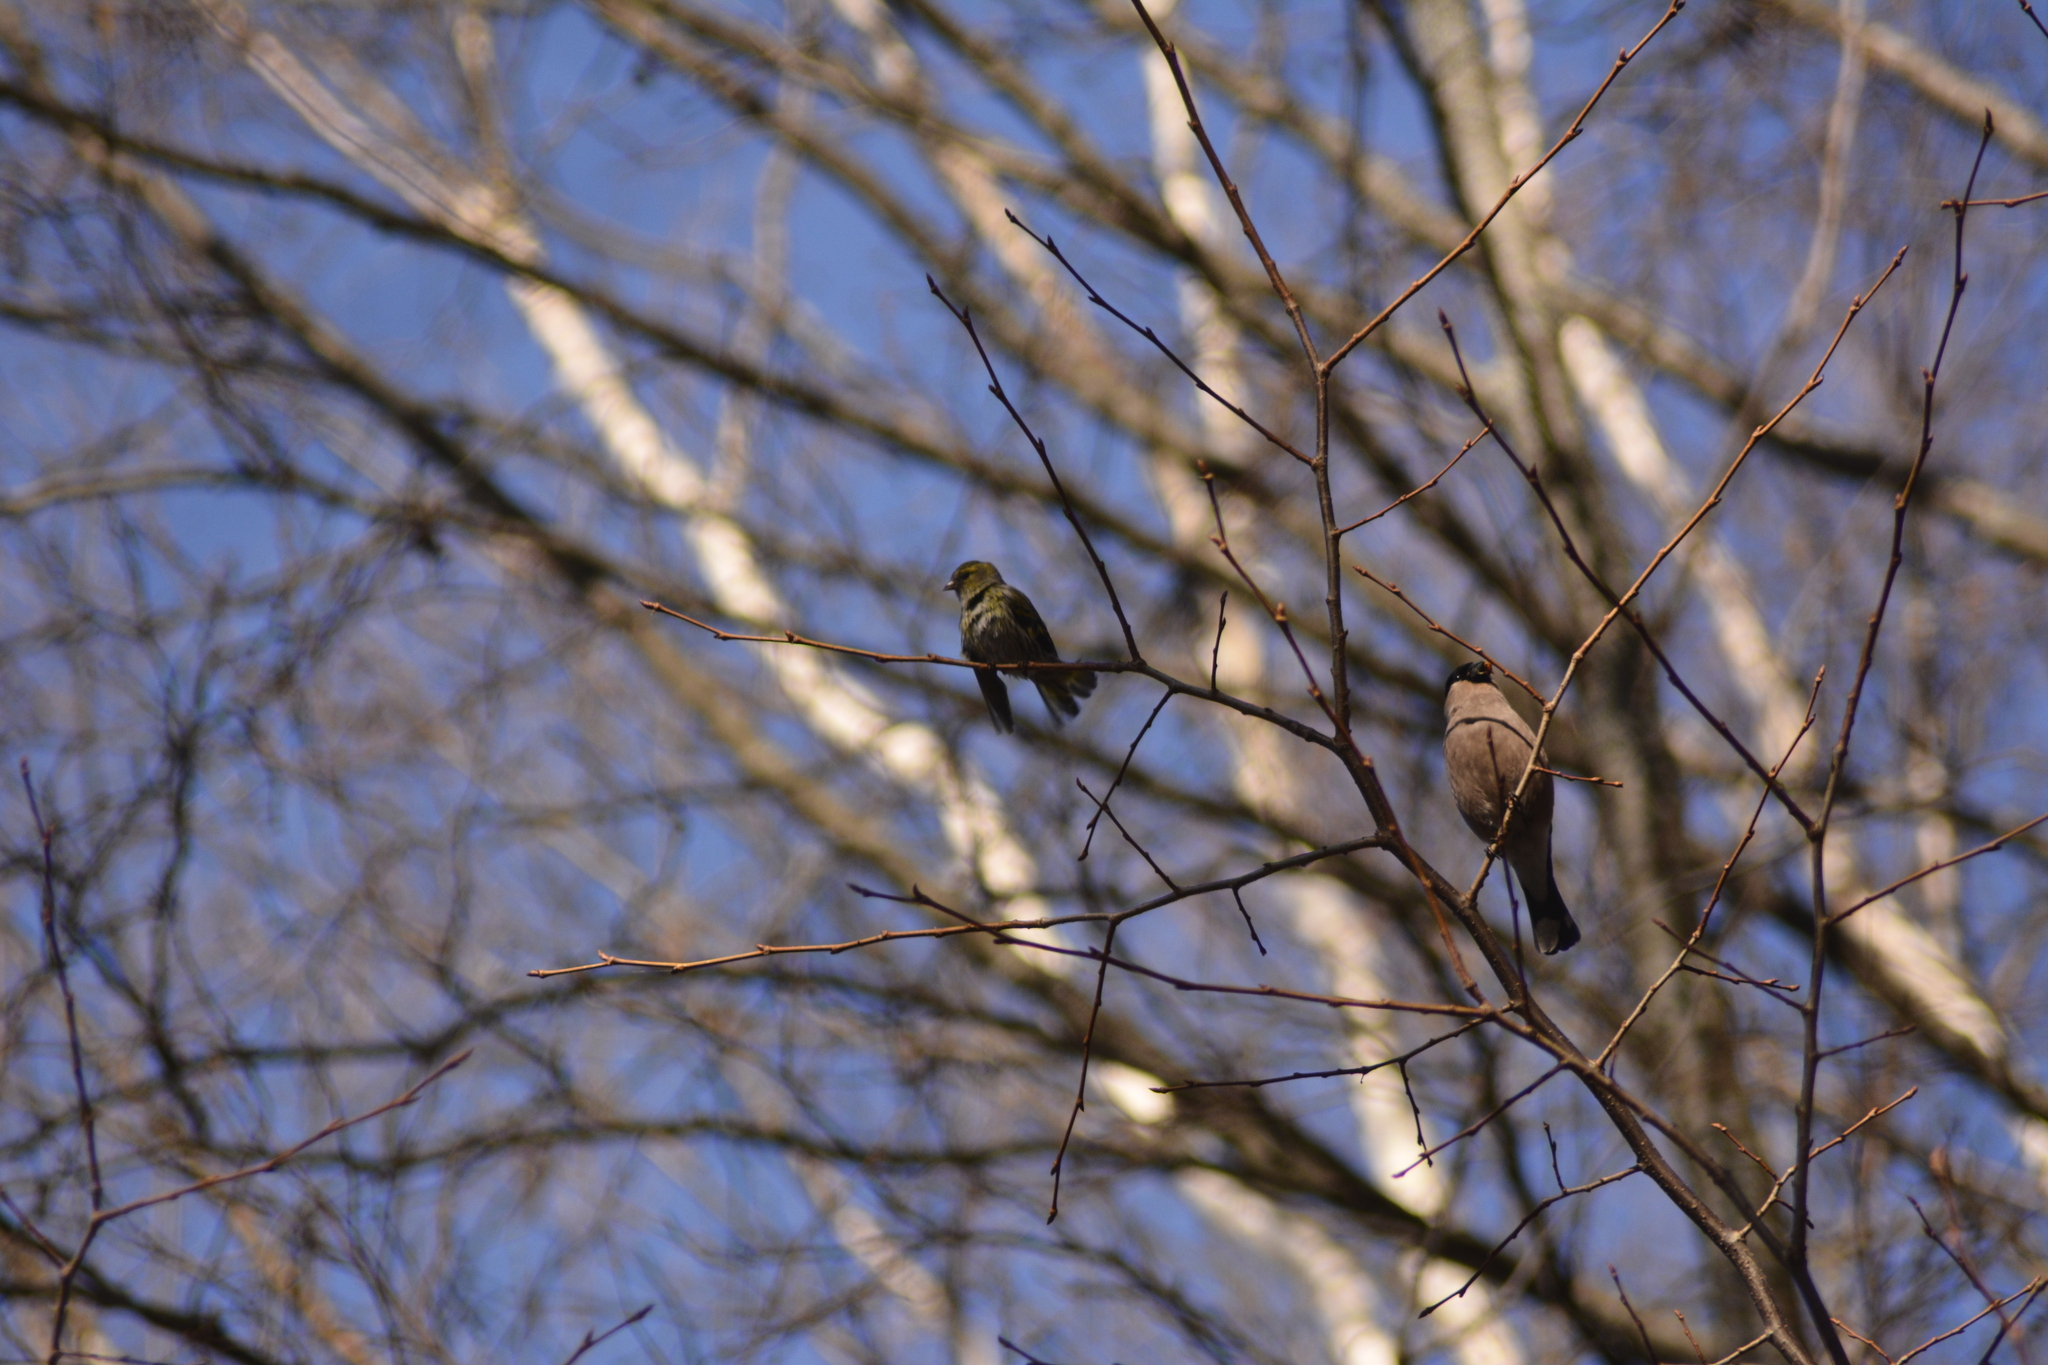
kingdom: Animalia
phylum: Chordata
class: Aves
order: Passeriformes
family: Fringillidae
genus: Spinus
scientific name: Spinus spinus
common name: Eurasian siskin
